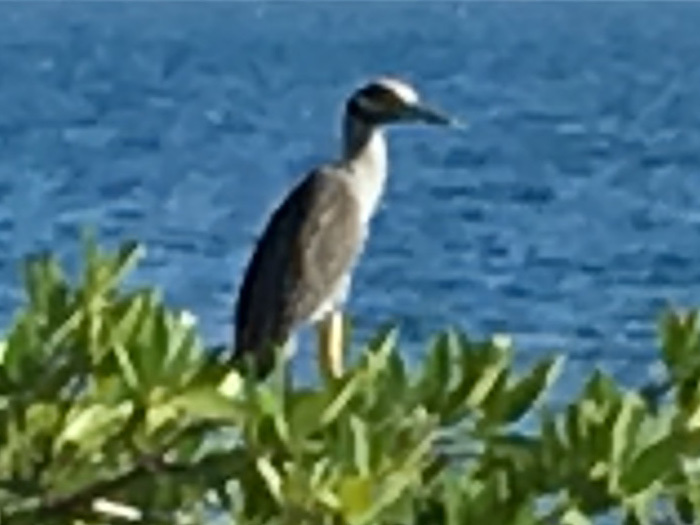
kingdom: Animalia
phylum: Chordata
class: Aves
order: Pelecaniformes
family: Ardeidae
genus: Nyctanassa
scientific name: Nyctanassa violacea
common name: Yellow-crowned night heron
